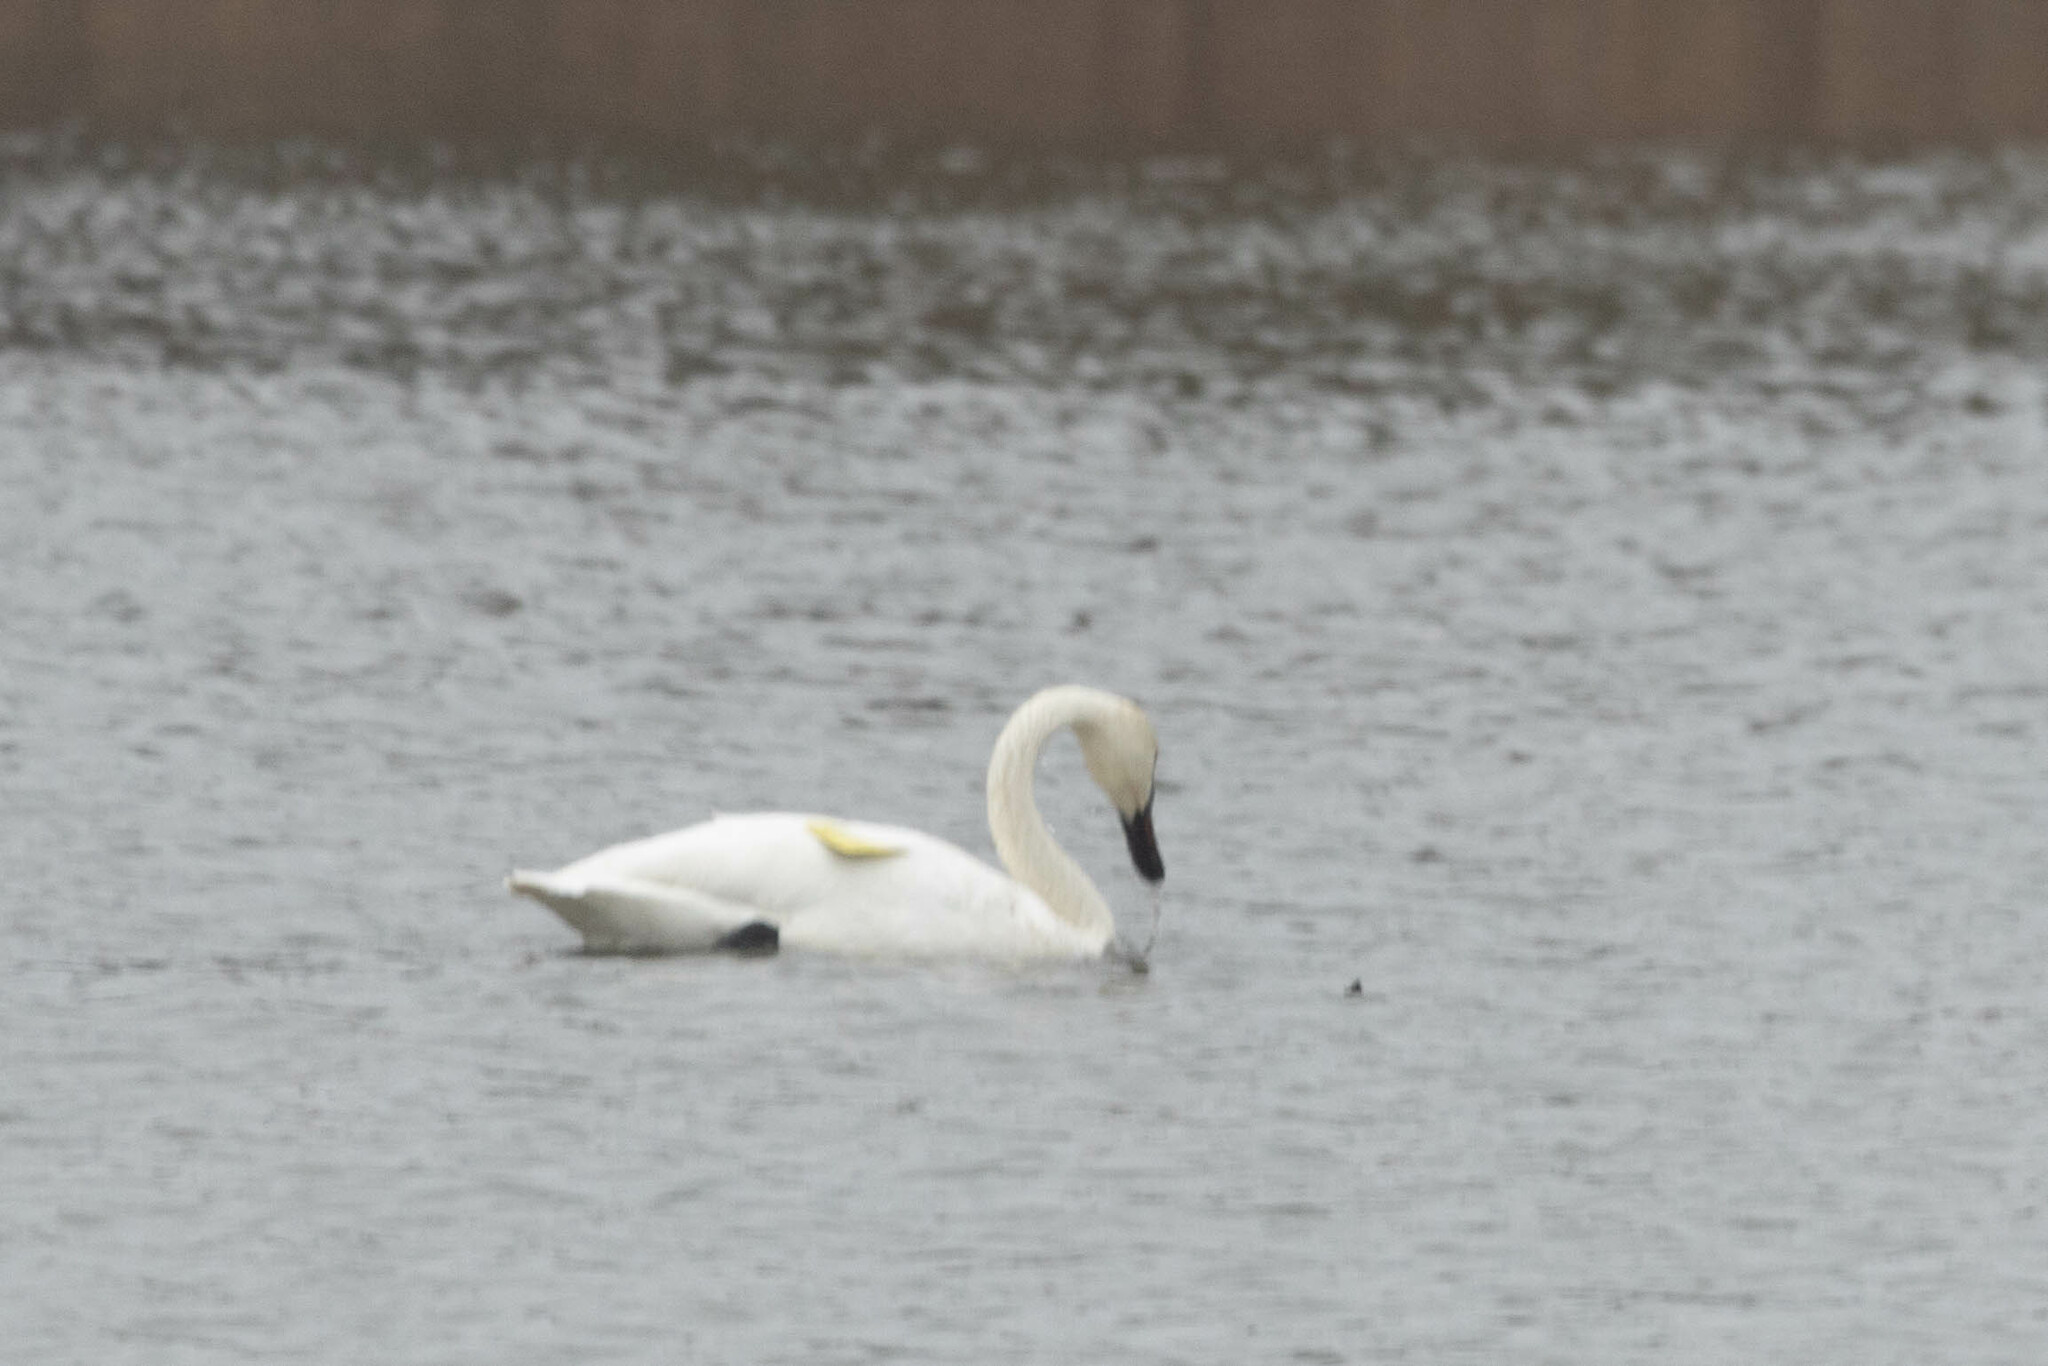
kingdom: Animalia
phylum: Chordata
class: Aves
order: Anseriformes
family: Anatidae
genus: Cygnus
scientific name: Cygnus buccinator
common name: Trumpeter swan
